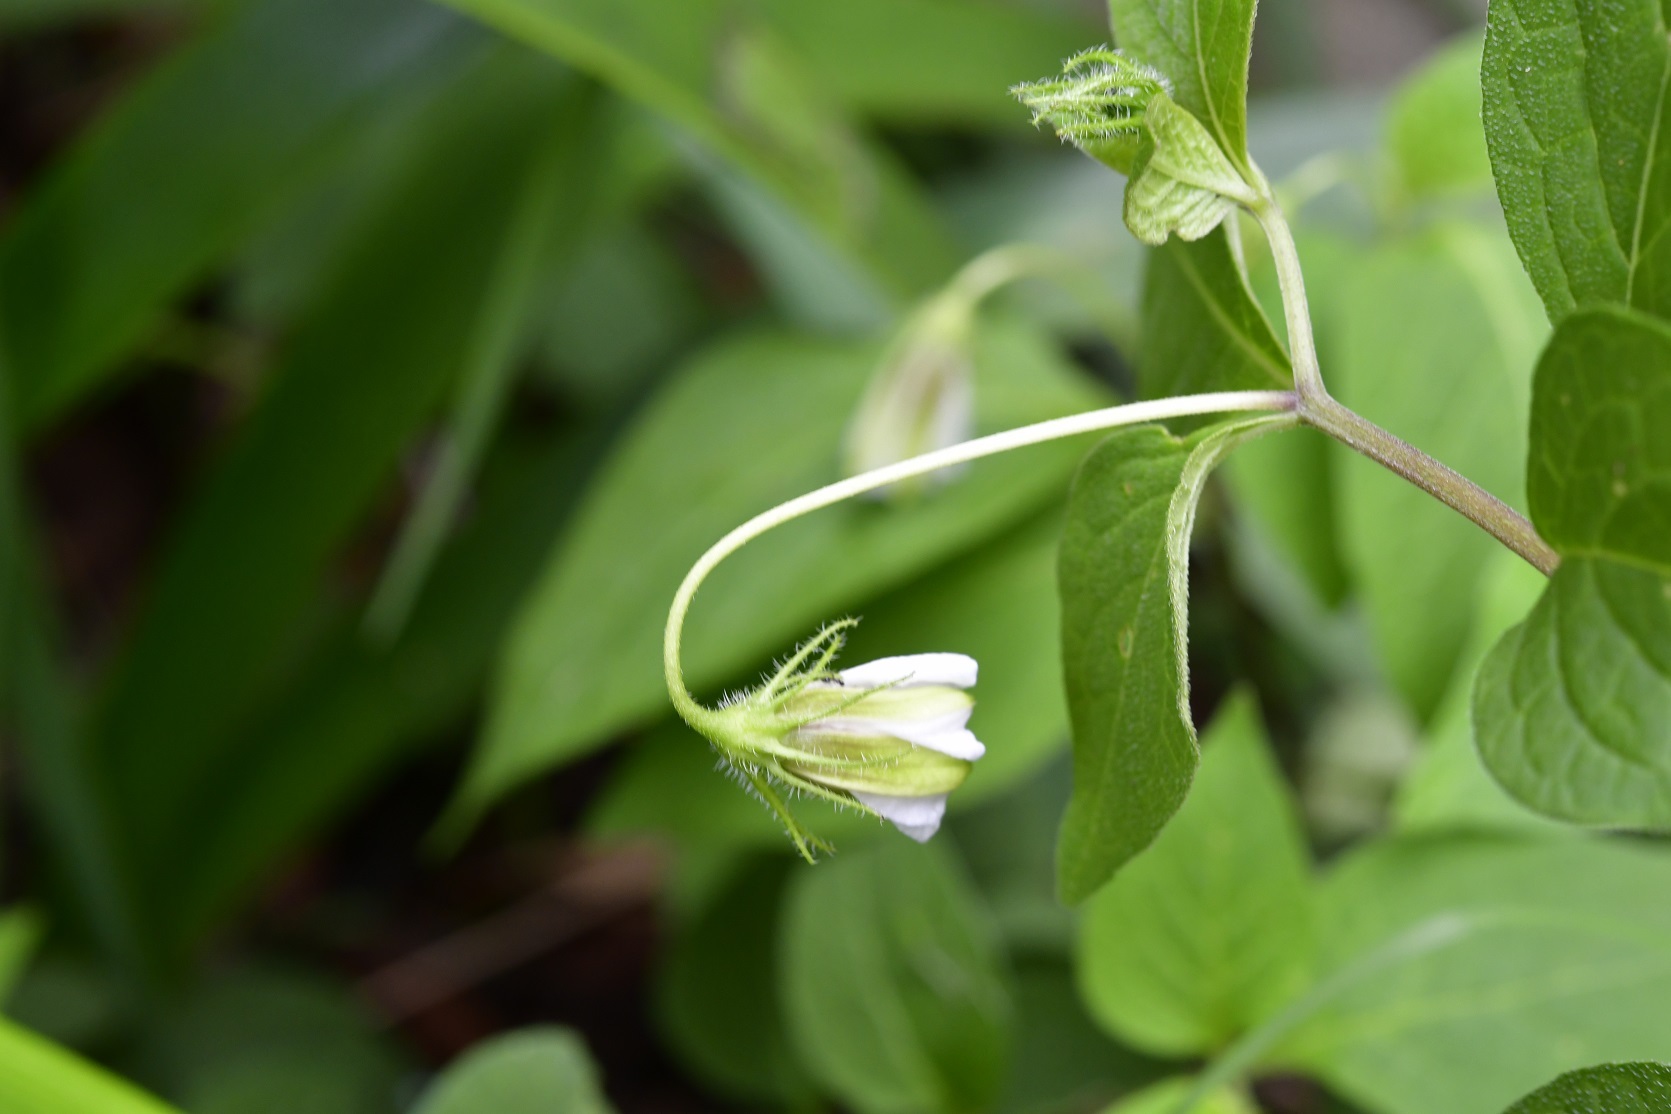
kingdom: Plantae
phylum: Tracheophyta
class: Magnoliopsida
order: Solanales
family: Solanaceae
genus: Lycianthes
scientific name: Lycianthes ciliolata
